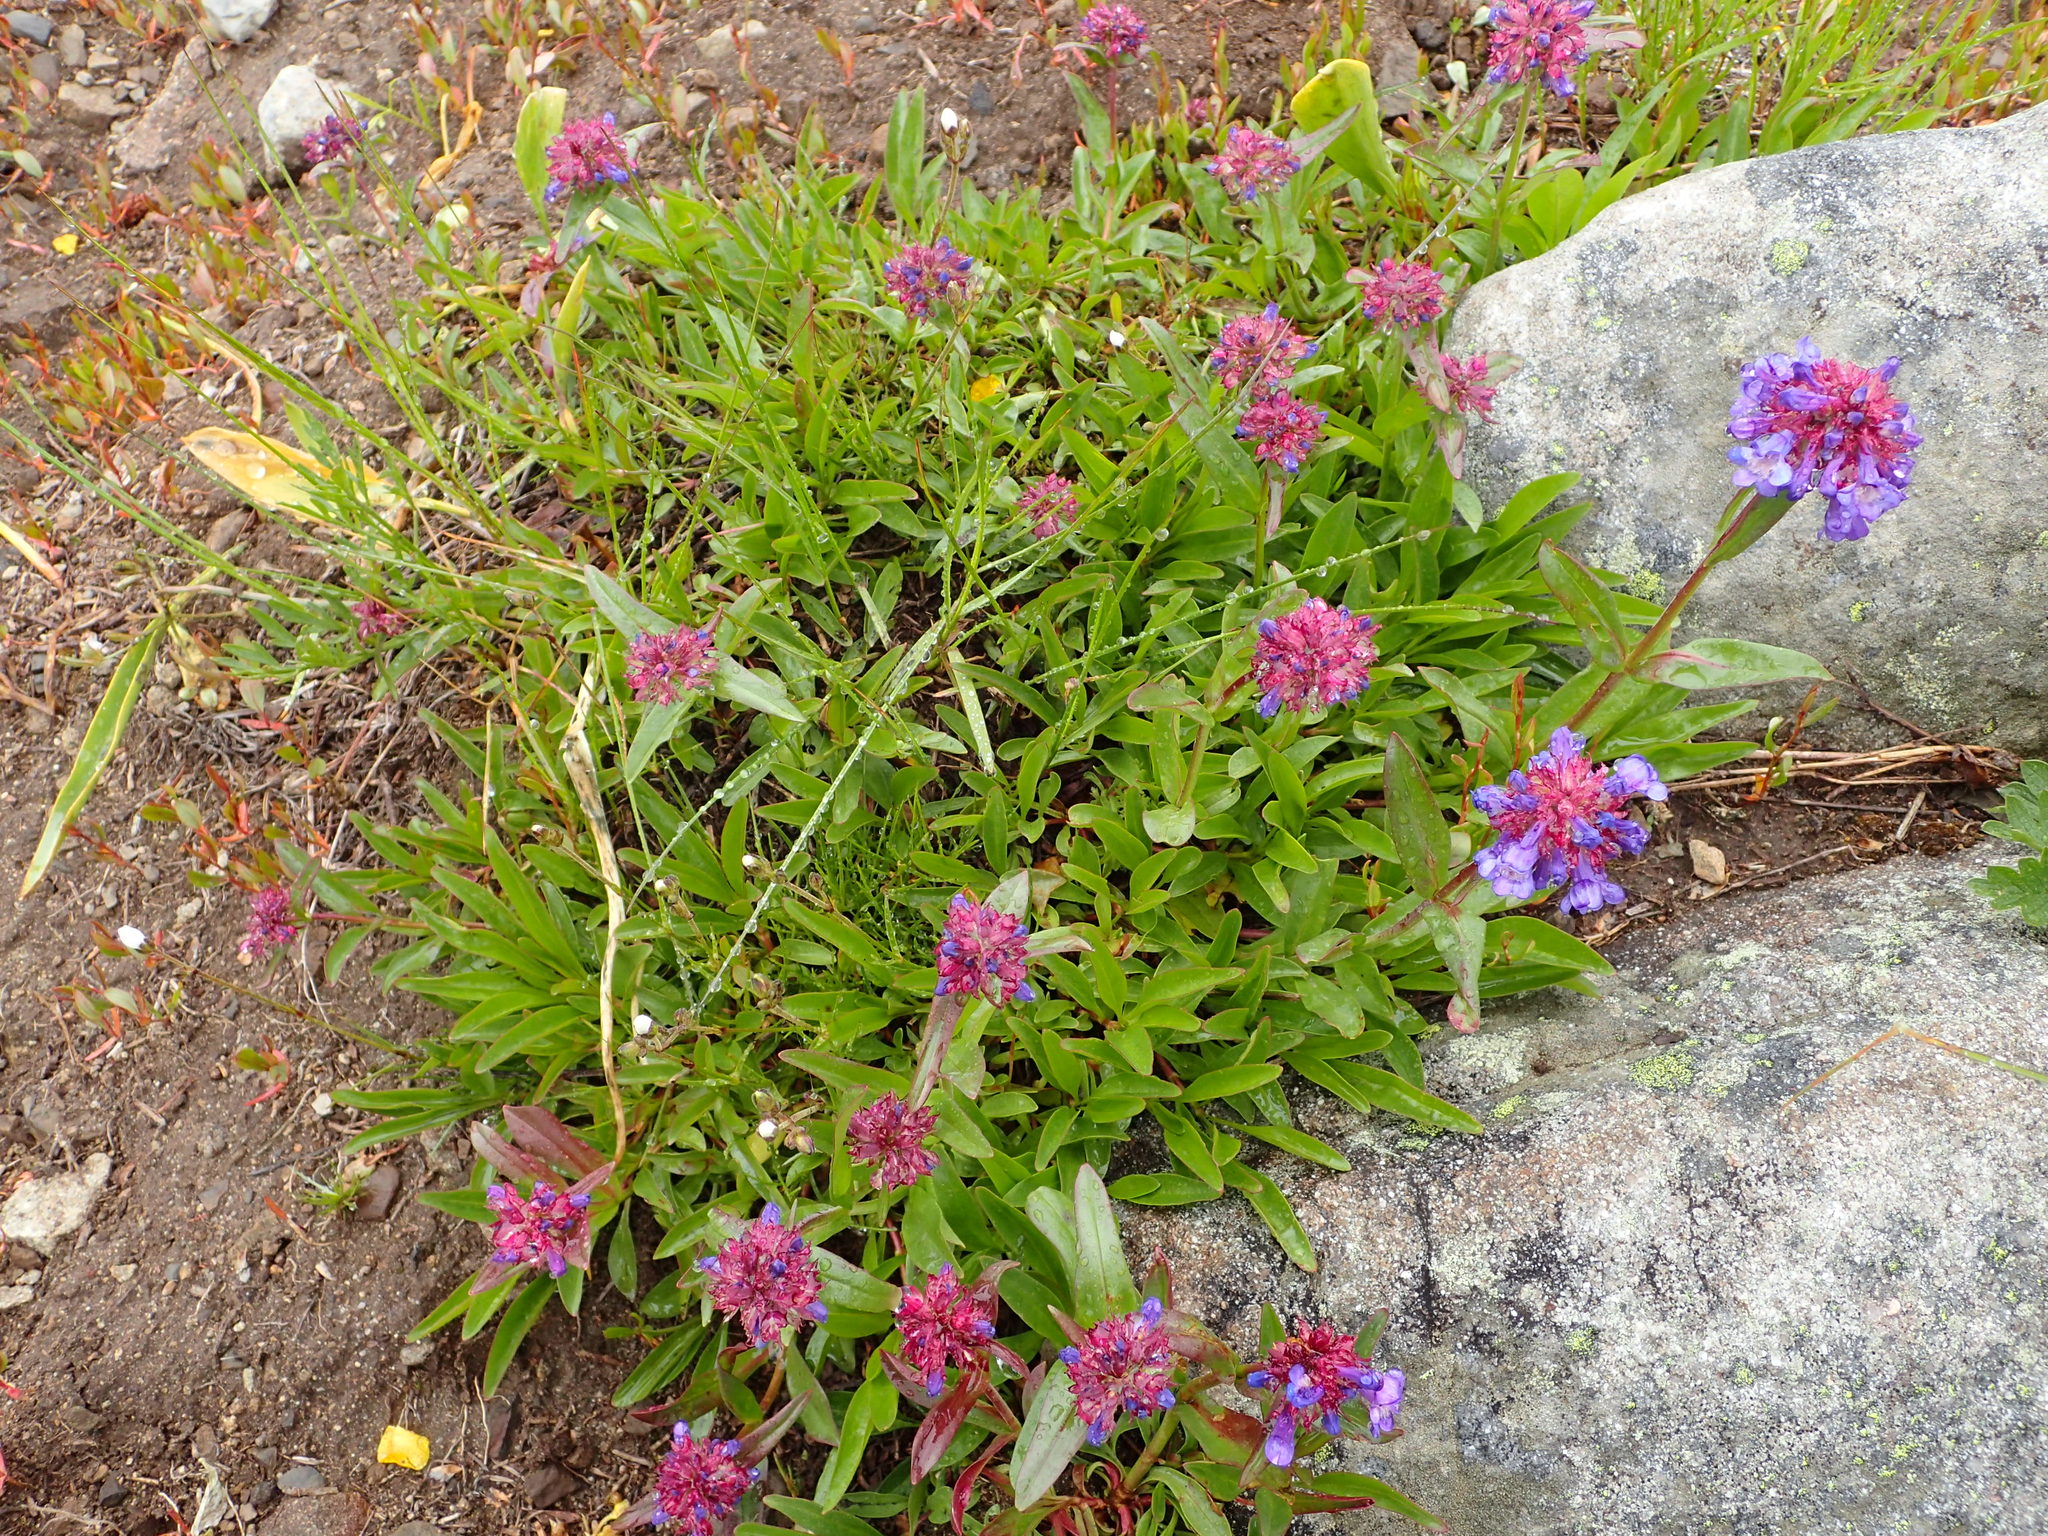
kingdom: Plantae
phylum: Tracheophyta
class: Magnoliopsida
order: Lamiales
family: Plantaginaceae
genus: Penstemon
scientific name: Penstemon procerus
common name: Small-flower penstemon
